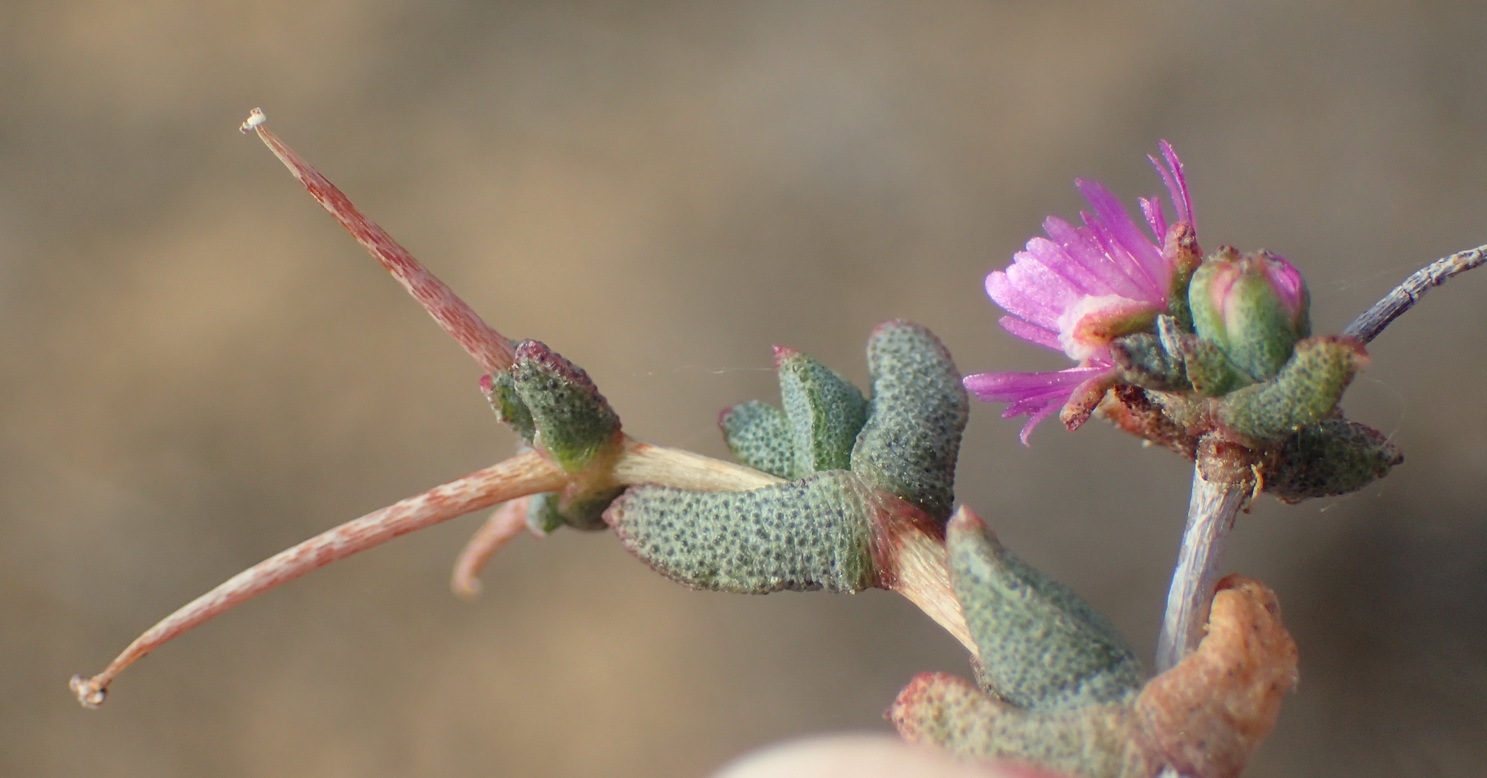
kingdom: Plantae
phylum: Tracheophyta
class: Magnoliopsida
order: Caryophyllales
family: Aizoaceae
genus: Ruschia
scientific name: Ruschia intricata
